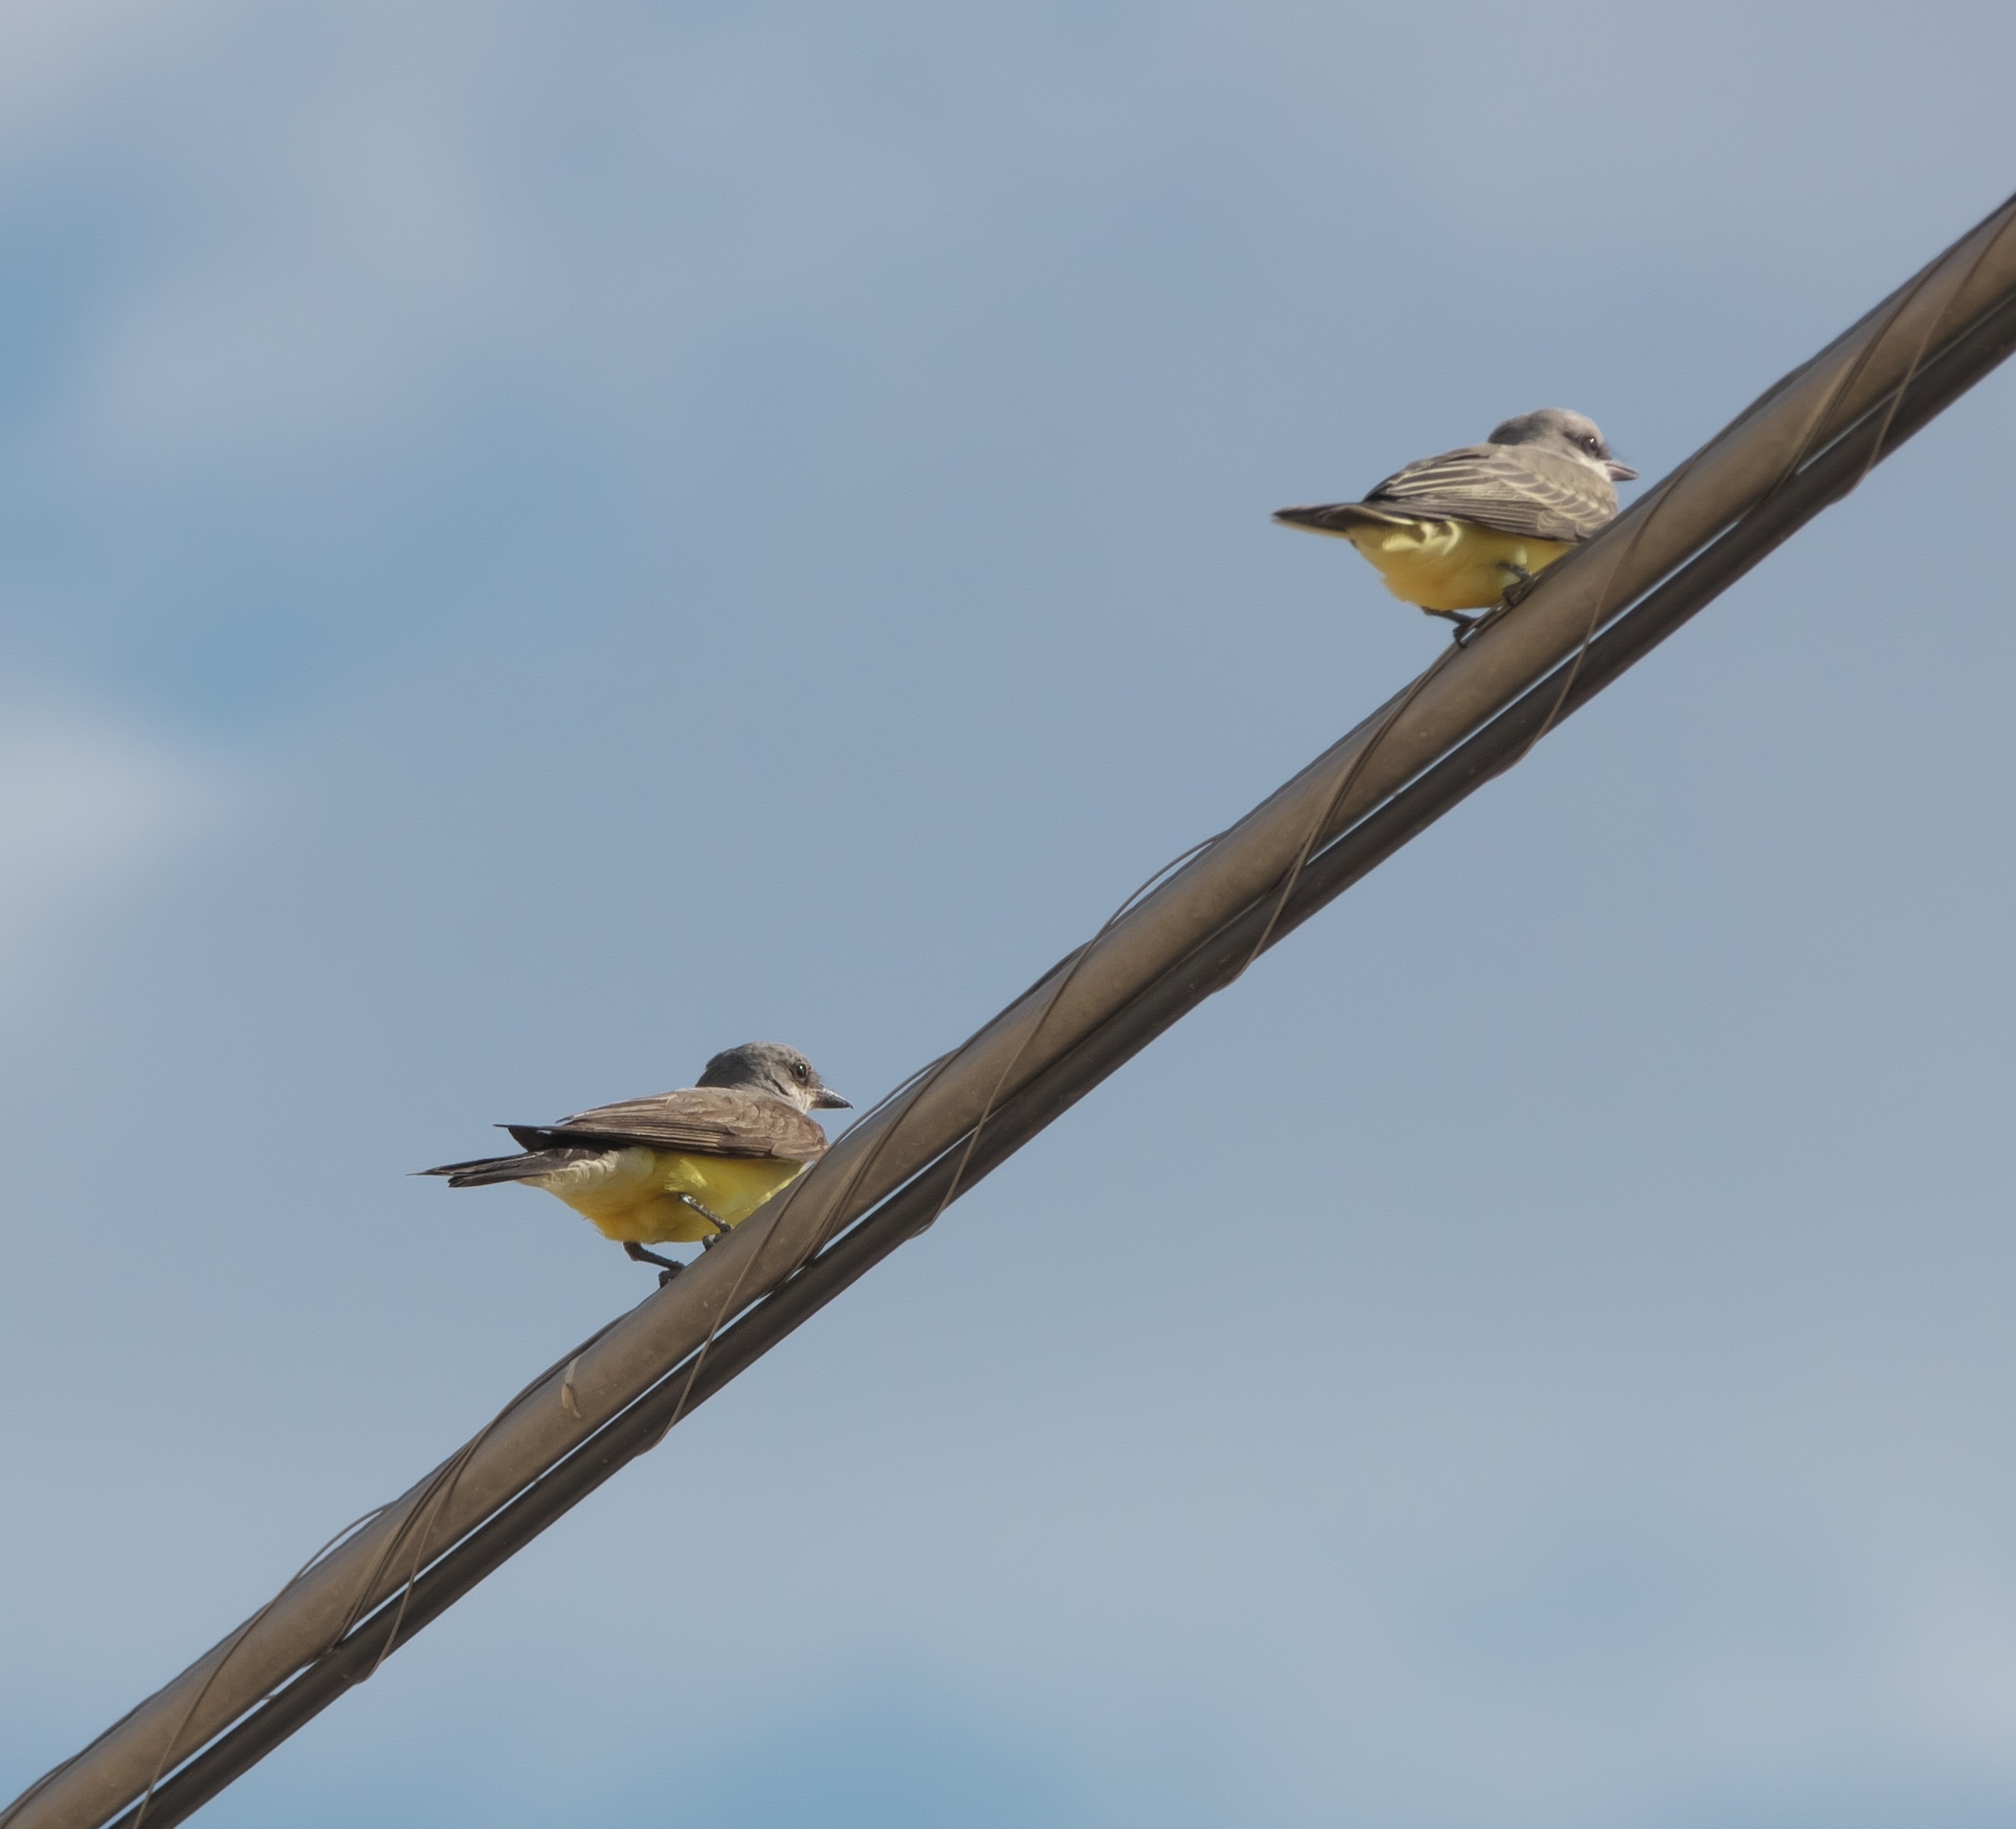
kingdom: Animalia
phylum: Chordata
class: Aves
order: Passeriformes
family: Tyrannidae
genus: Tyrannus
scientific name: Tyrannus verticalis
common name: Western kingbird
